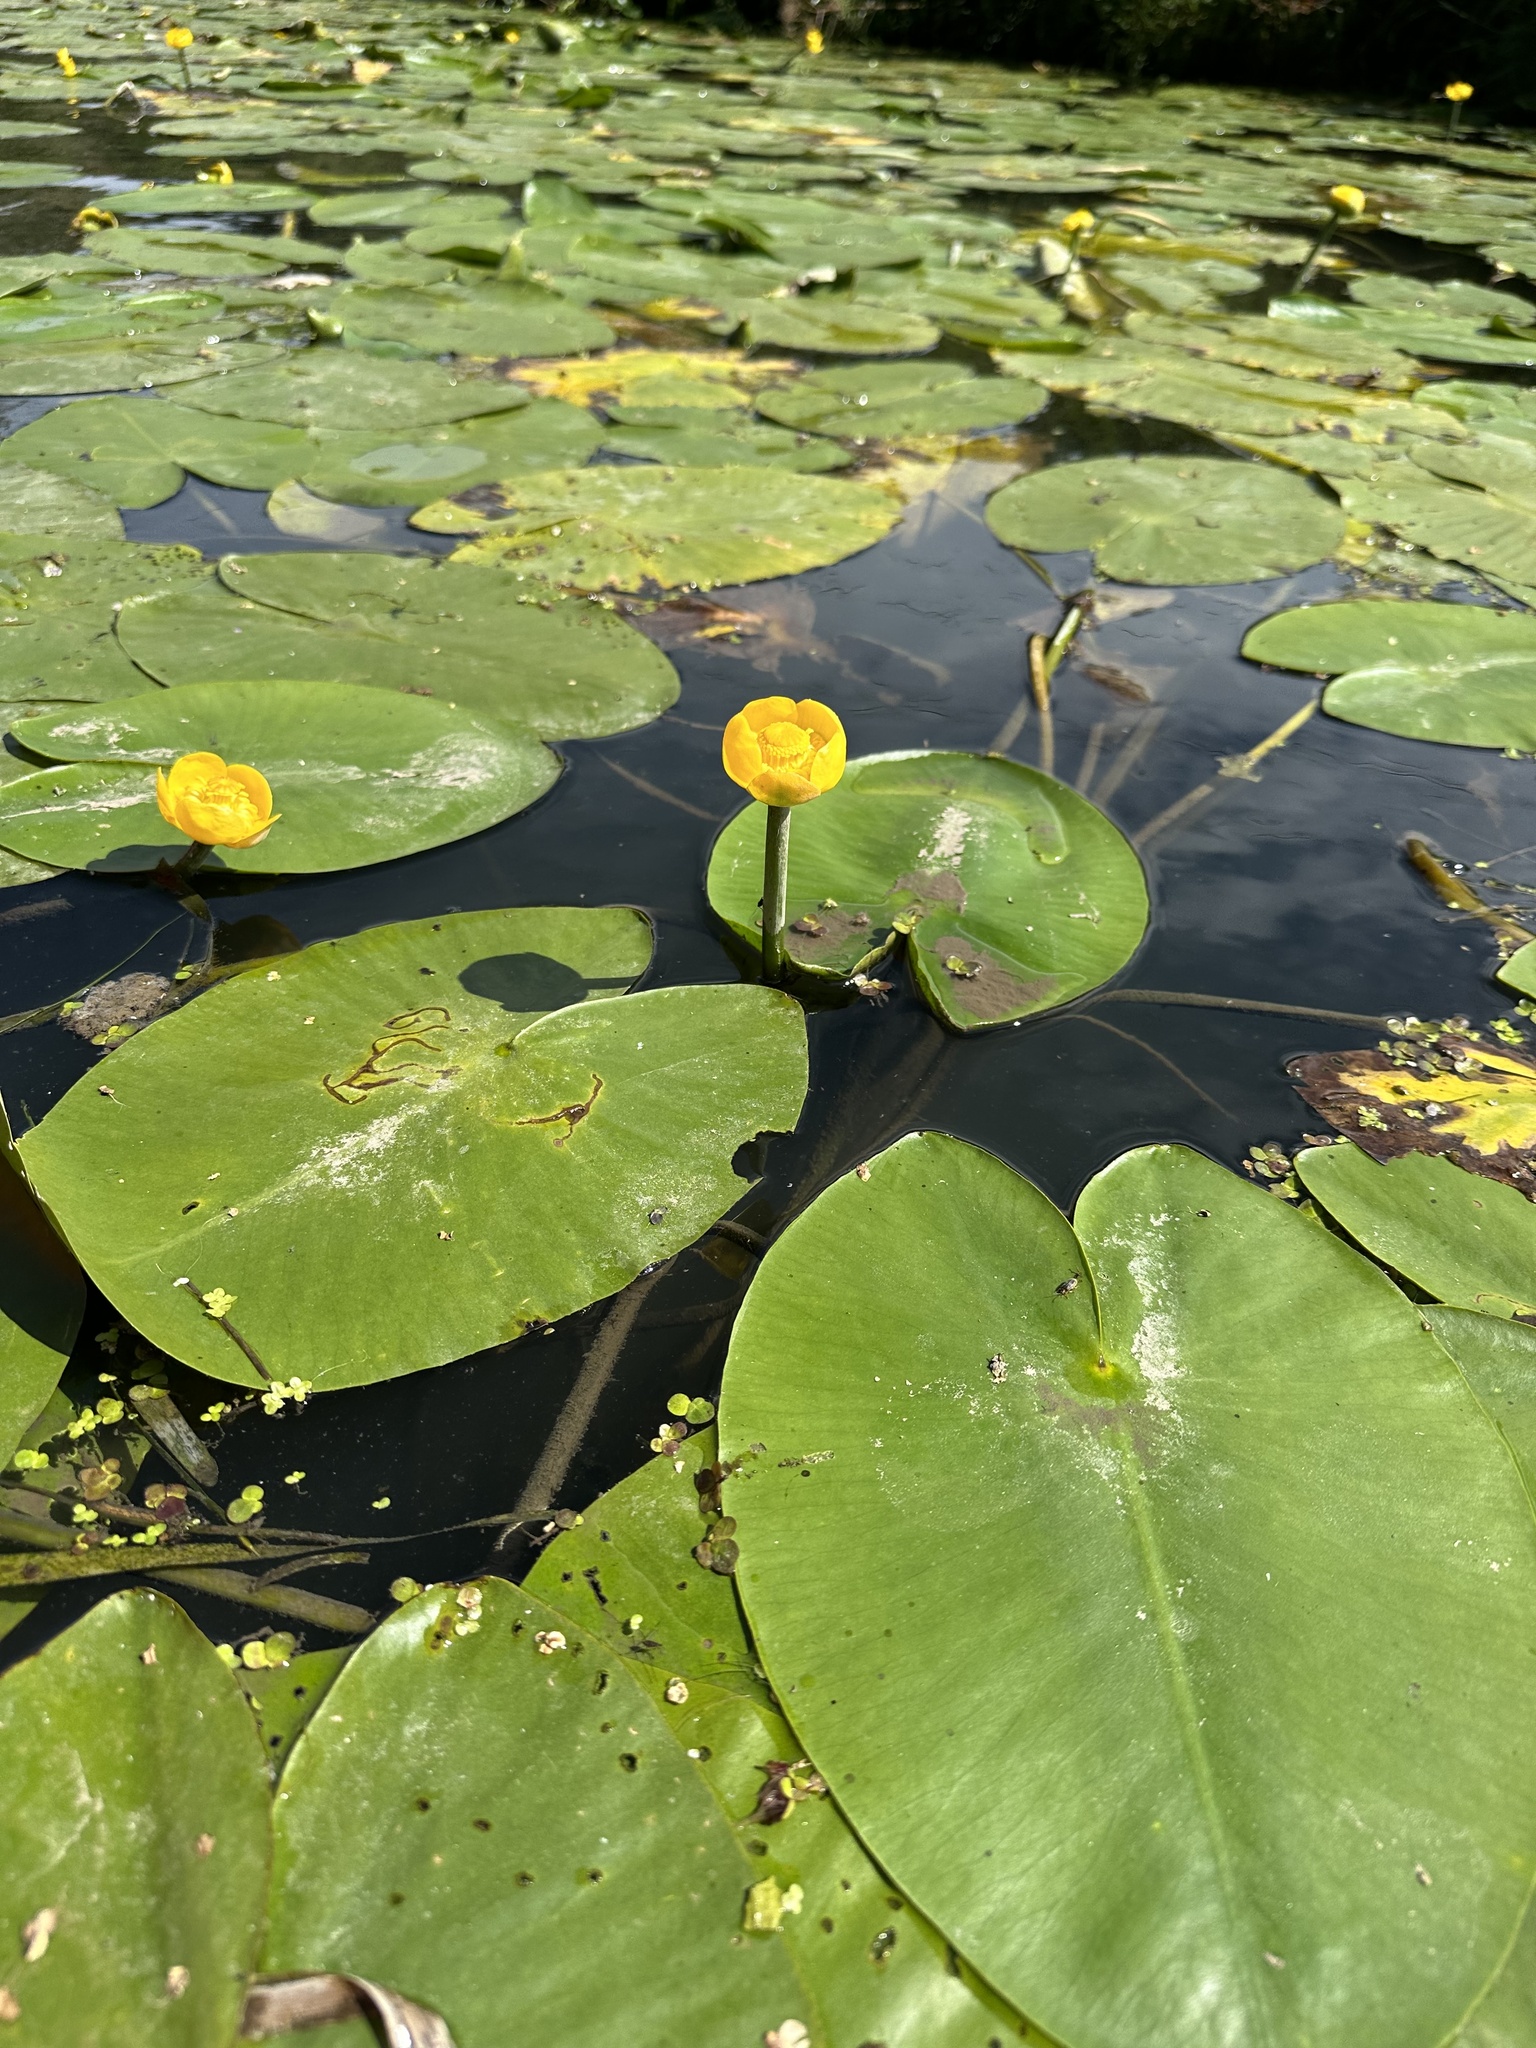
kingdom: Plantae
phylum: Tracheophyta
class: Magnoliopsida
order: Nymphaeales
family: Nymphaeaceae
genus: Nuphar
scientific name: Nuphar lutea
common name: Yellow water-lily
